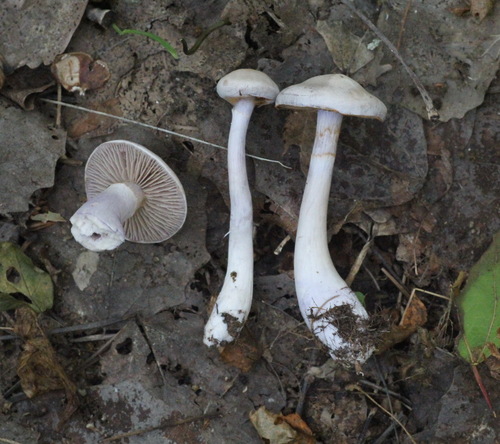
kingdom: Fungi
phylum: Basidiomycota
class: Agaricomycetes
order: Agaricales
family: Cortinariaceae
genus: Cortinarius
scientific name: Cortinarius alboviolaceus
